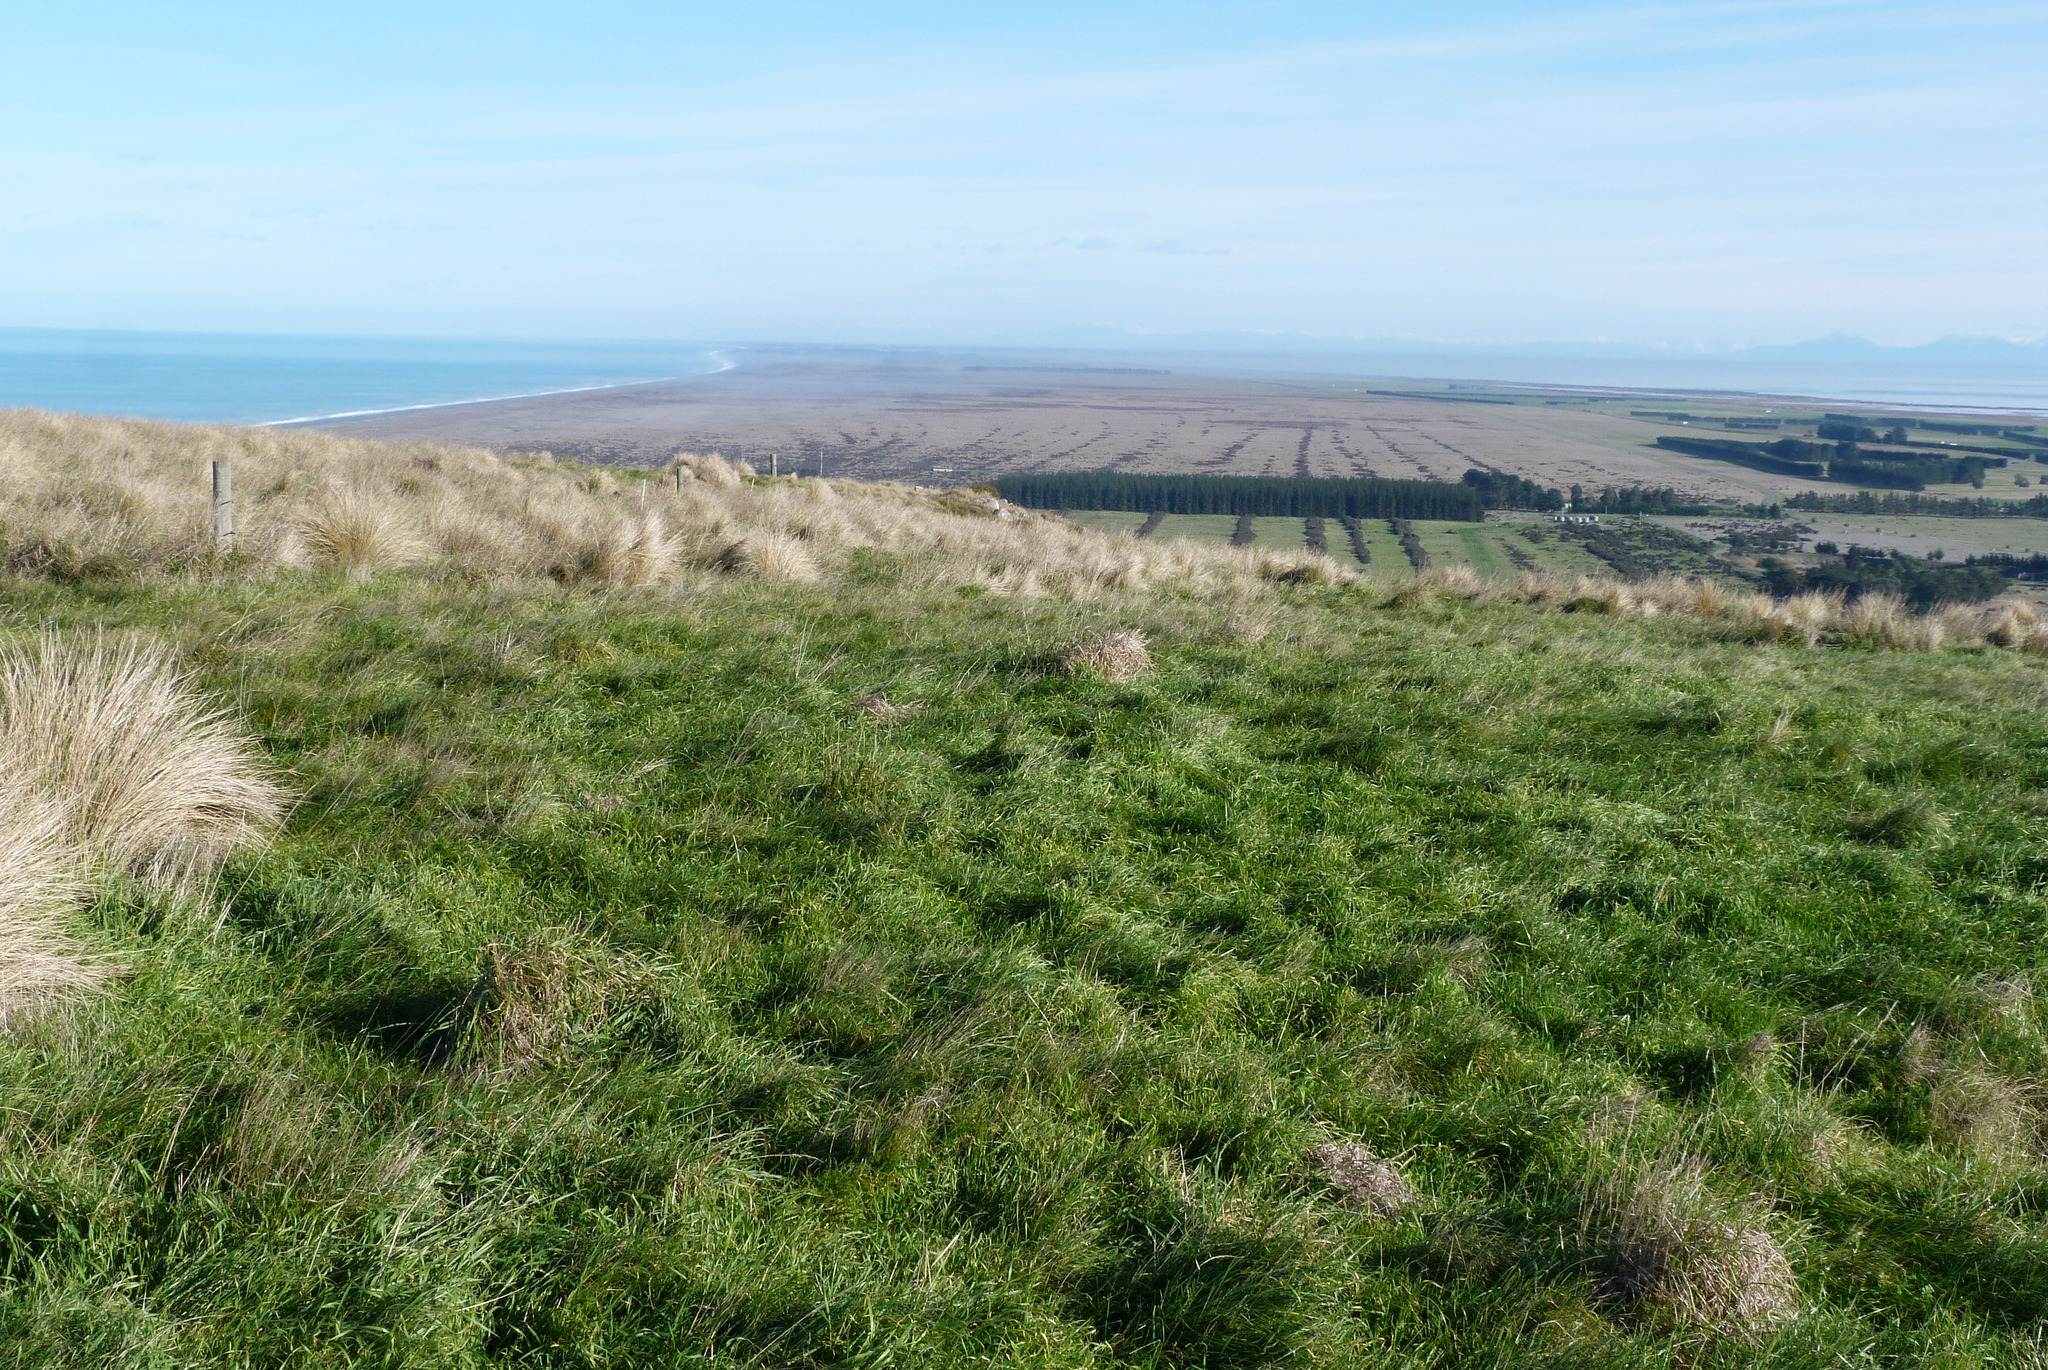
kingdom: Plantae
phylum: Tracheophyta
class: Liliopsida
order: Poales
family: Poaceae
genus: Poa
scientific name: Poa cita
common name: Silver tussock
